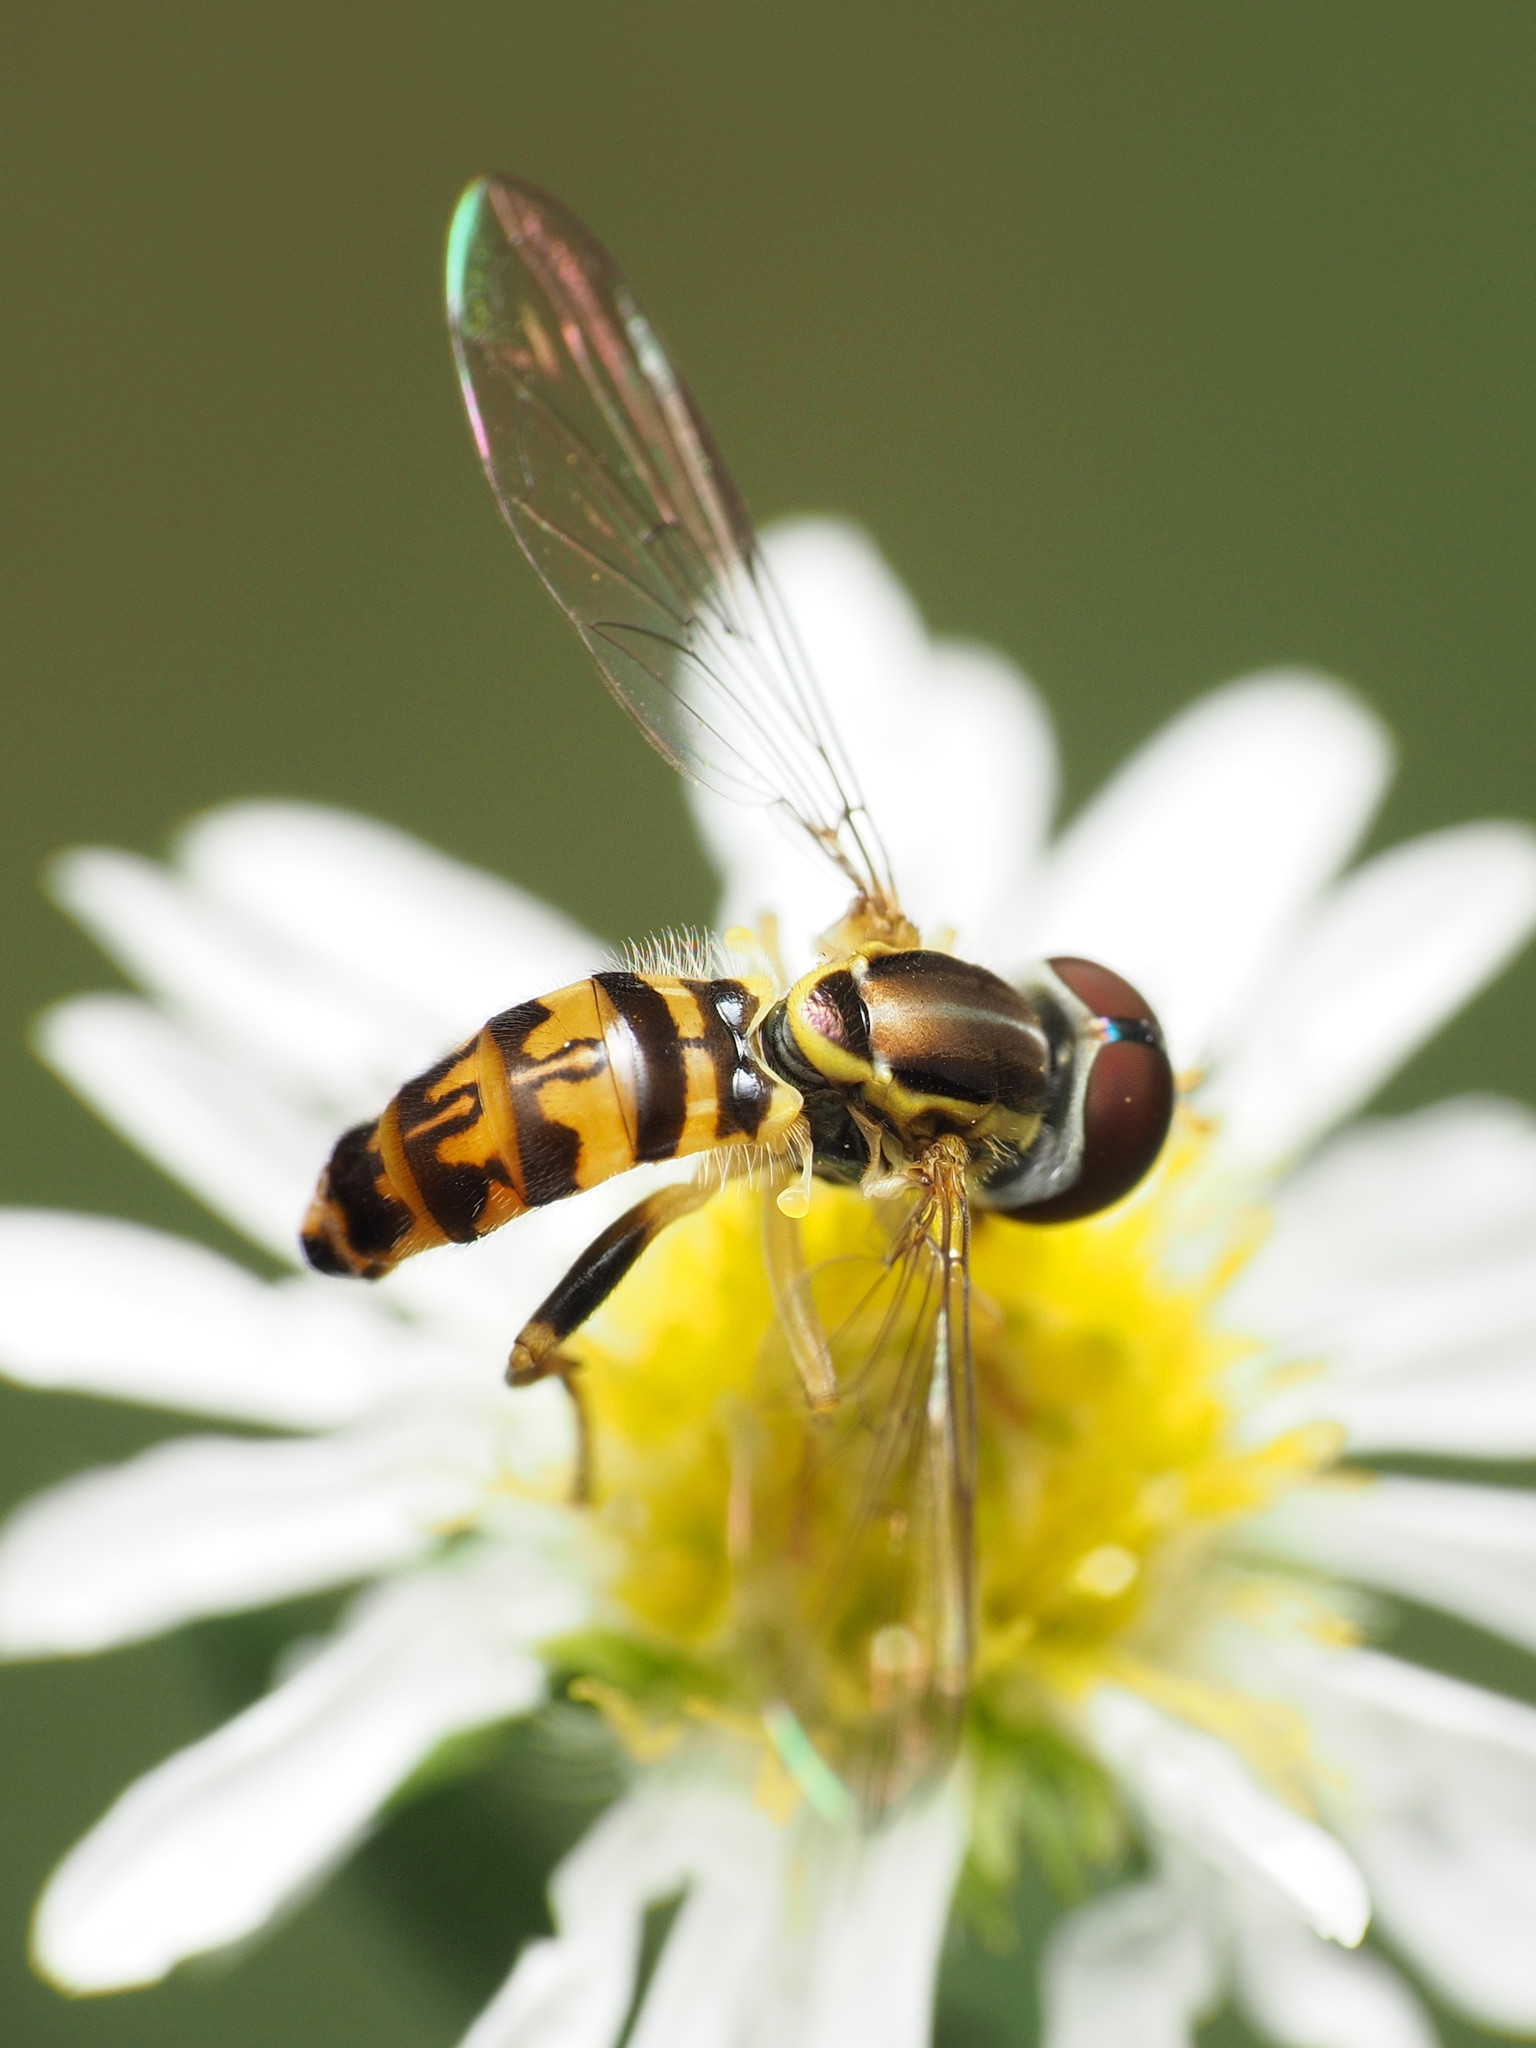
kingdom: Animalia
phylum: Arthropoda
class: Insecta
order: Diptera
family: Syrphidae
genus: Toxomerus
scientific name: Toxomerus geminatus
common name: Eastern calligrapher
